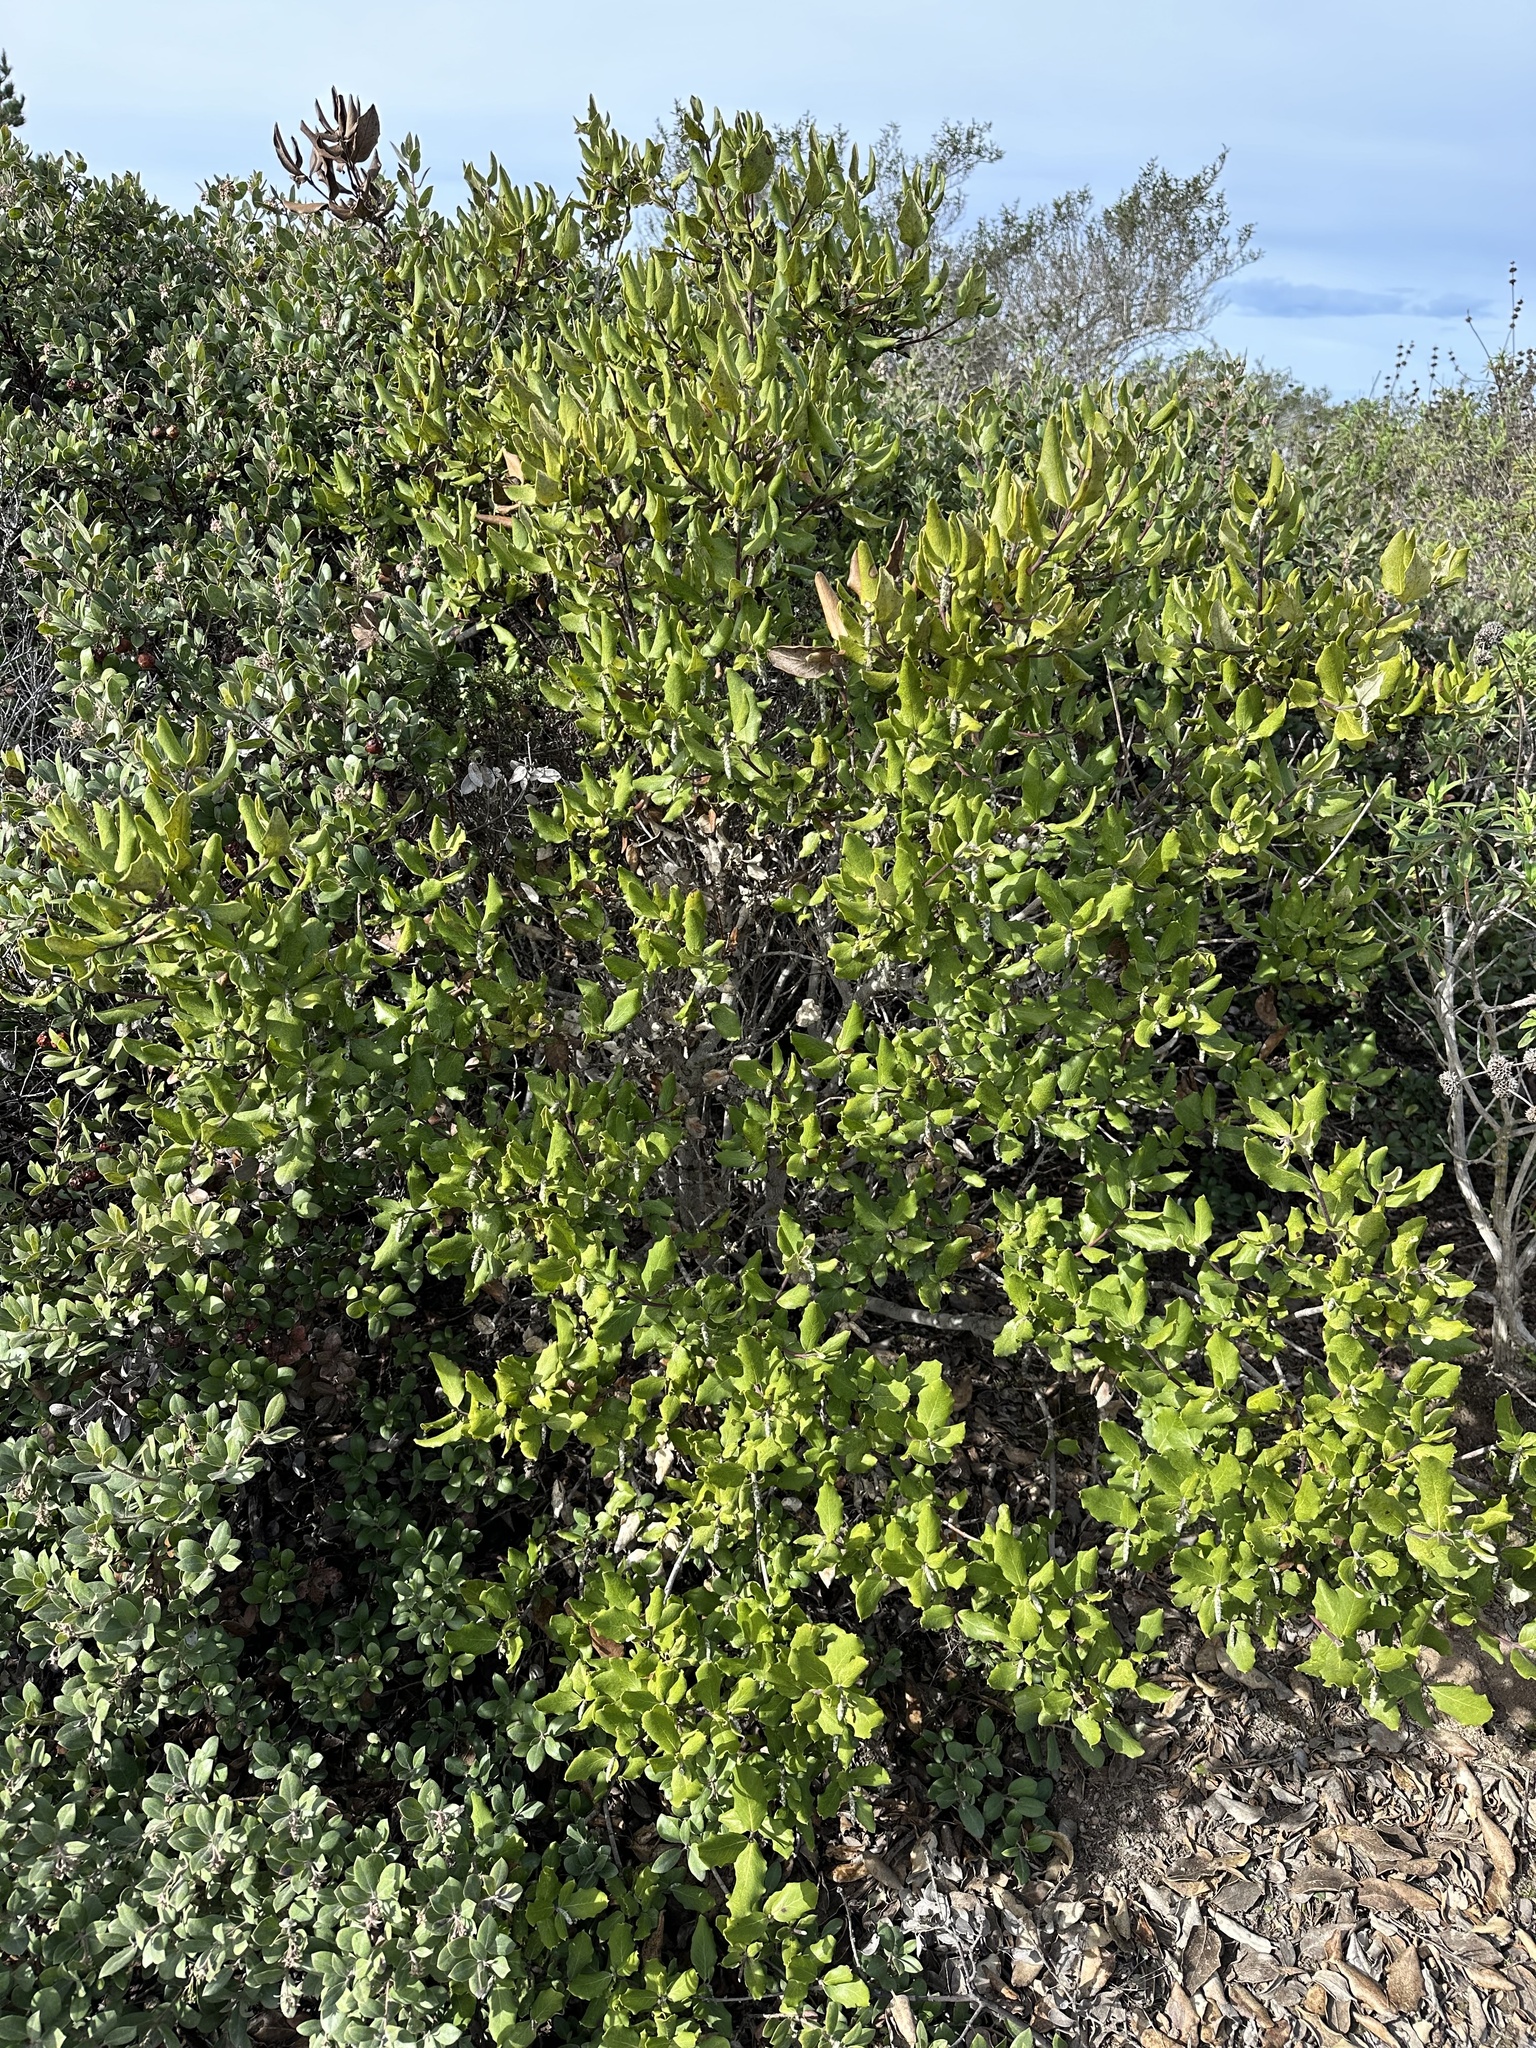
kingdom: Plantae
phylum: Tracheophyta
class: Magnoliopsida
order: Garryales
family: Garryaceae
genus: Garrya
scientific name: Garrya elliptica
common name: Silk-tassel
